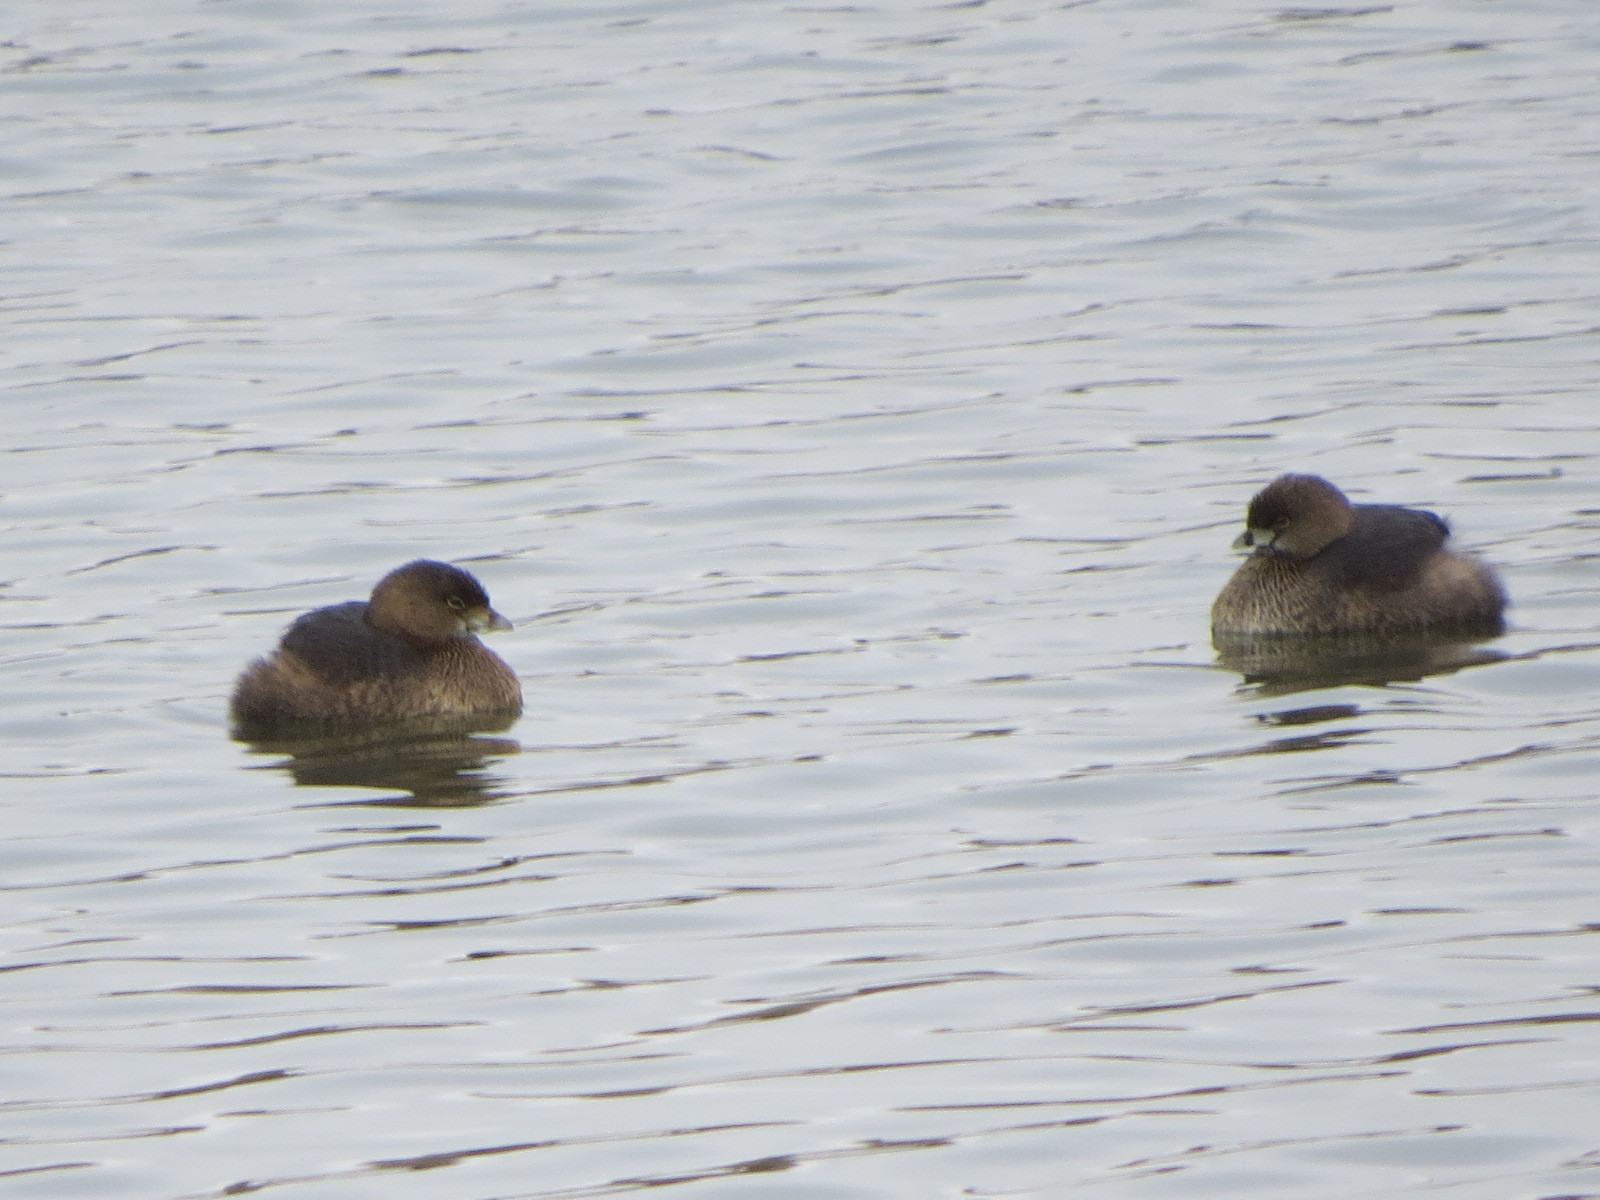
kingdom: Animalia
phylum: Chordata
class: Aves
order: Podicipediformes
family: Podicipedidae
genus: Podilymbus
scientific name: Podilymbus podiceps
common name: Pied-billed grebe
